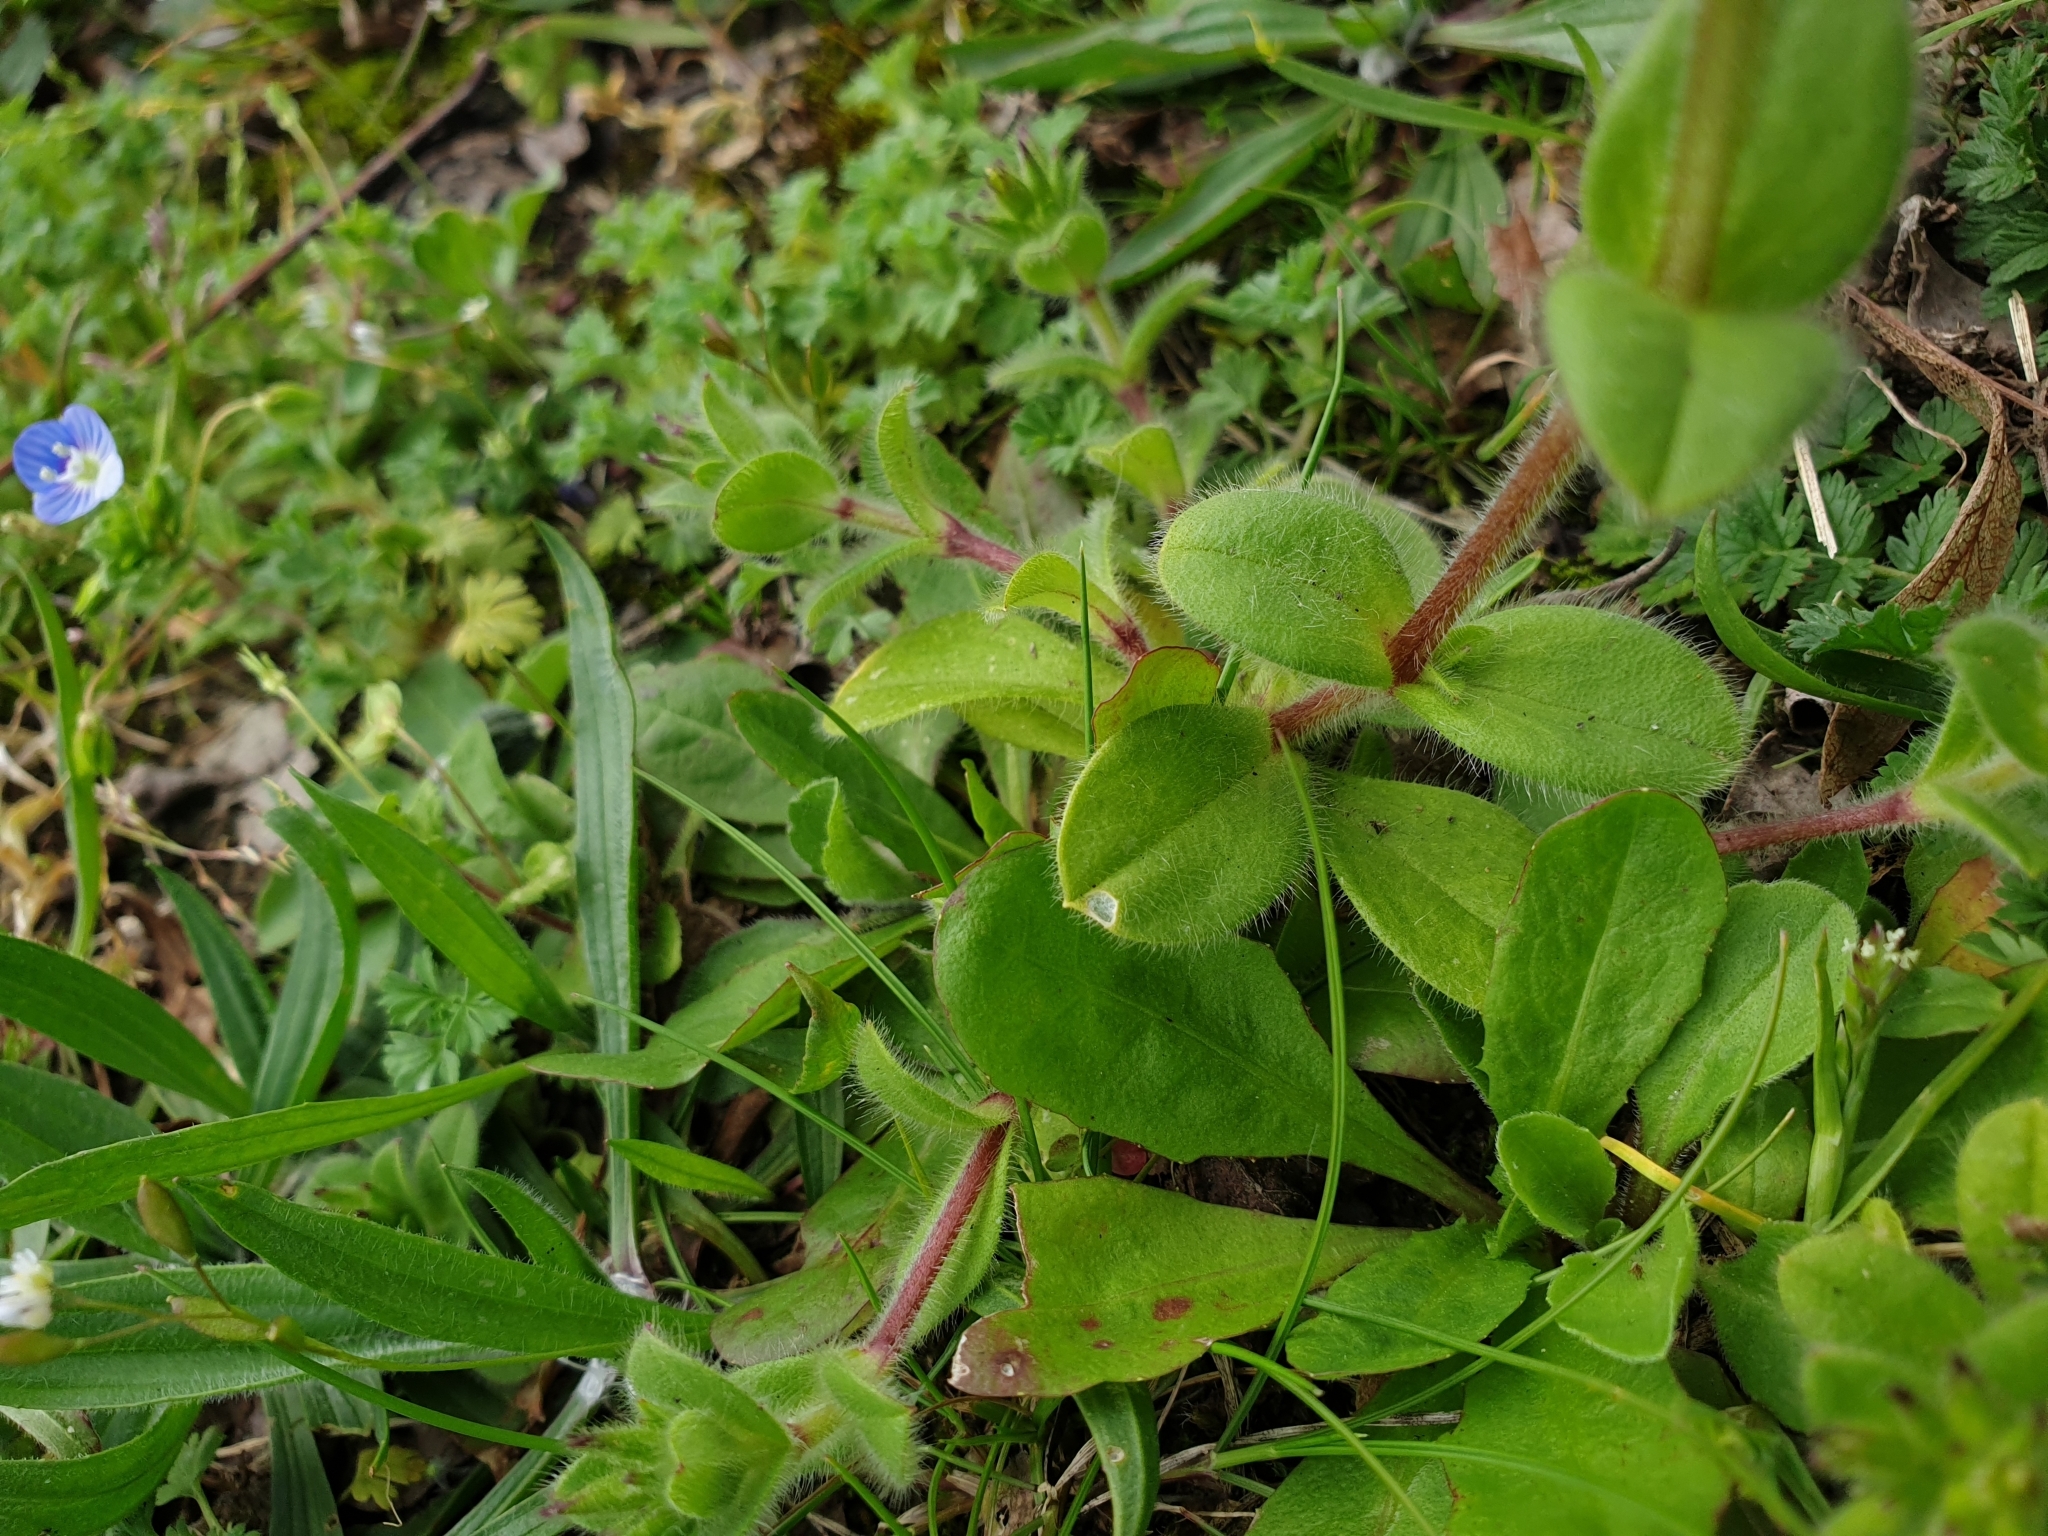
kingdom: Plantae
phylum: Tracheophyta
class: Magnoliopsida
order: Caryophyllales
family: Caryophyllaceae
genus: Cerastium
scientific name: Cerastium glomeratum
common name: Sticky chickweed
